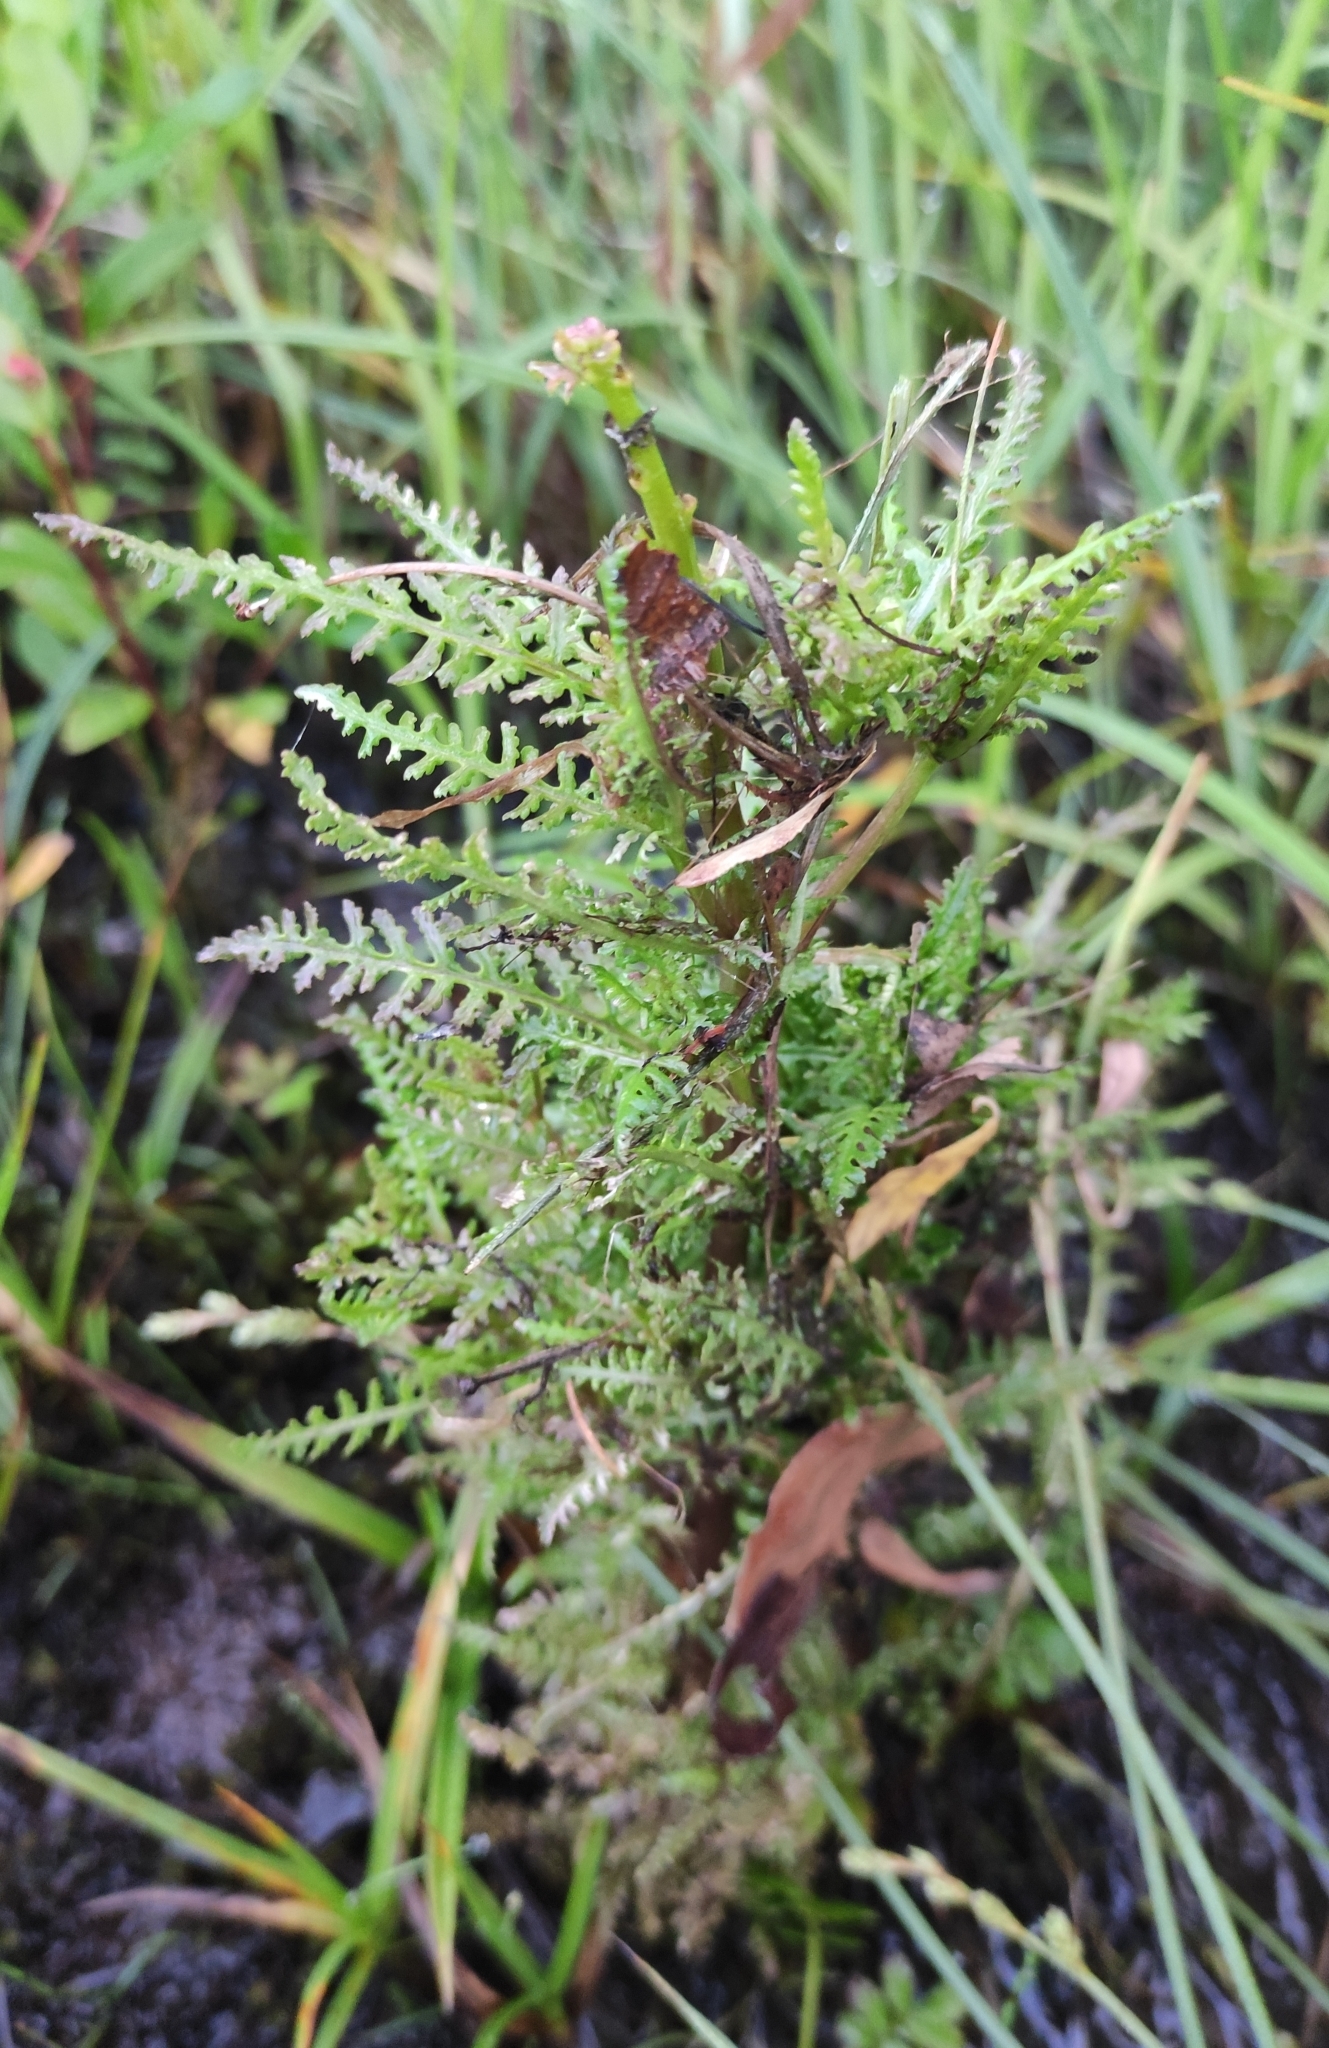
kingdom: Plantae
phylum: Tracheophyta
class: Magnoliopsida
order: Lamiales
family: Orobanchaceae
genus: Pedicularis
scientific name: Pedicularis karoi
